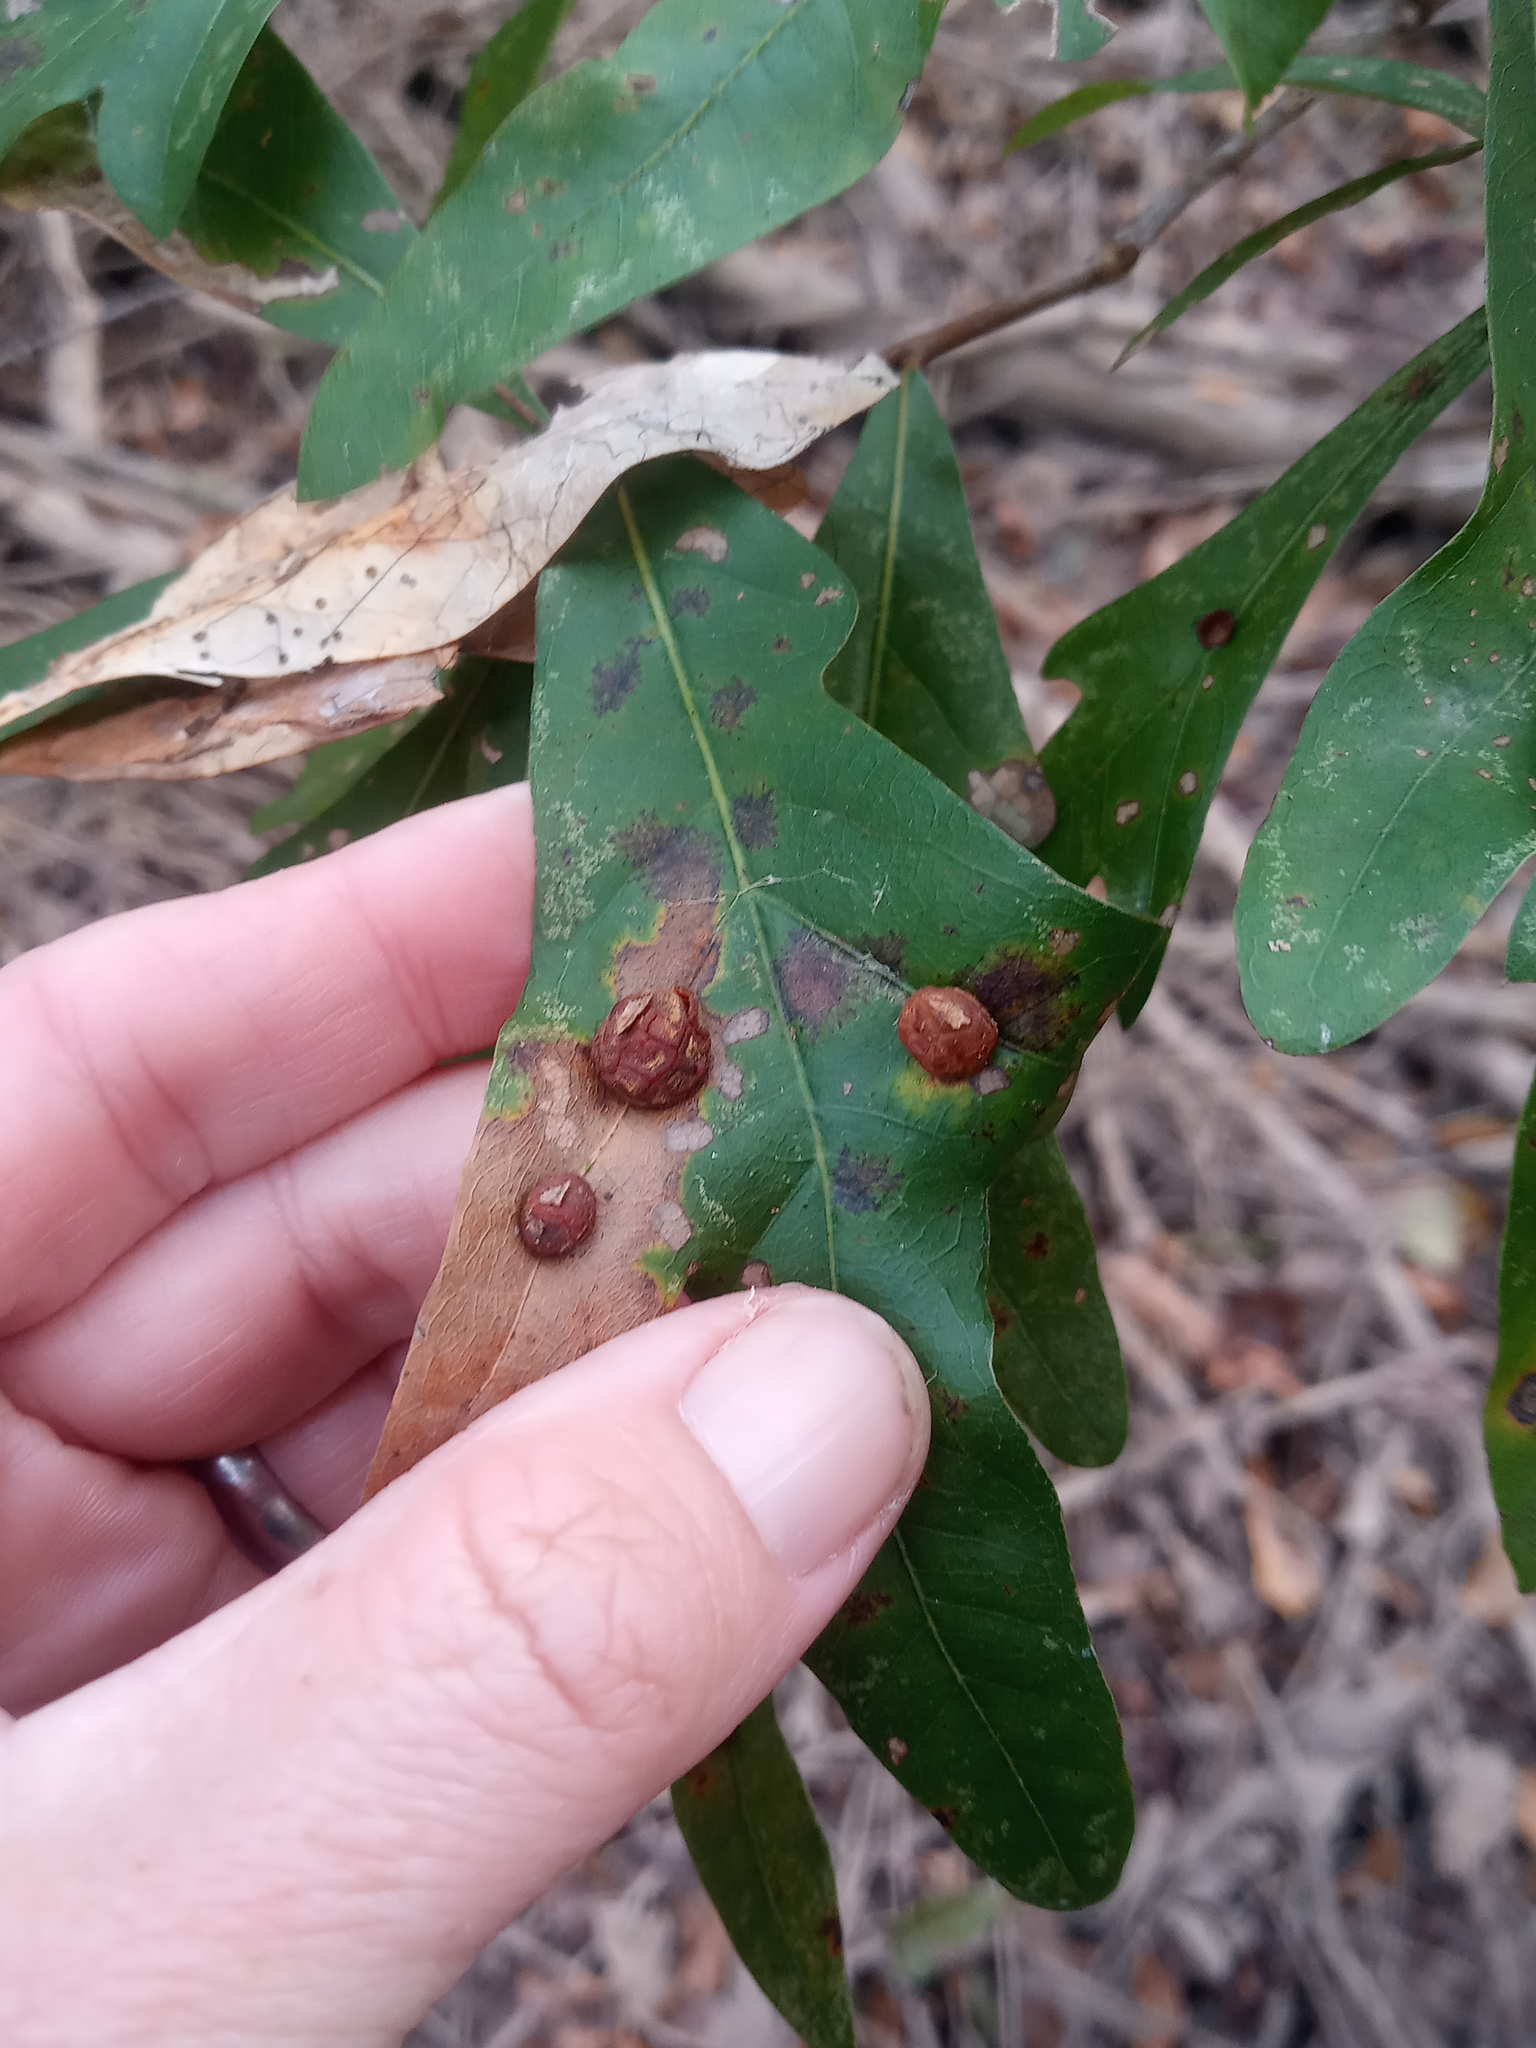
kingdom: Animalia
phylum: Arthropoda
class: Insecta
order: Diptera
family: Cecidomyiidae
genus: Polystepha
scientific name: Polystepha pilulae
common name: Oak leaf gall midge
